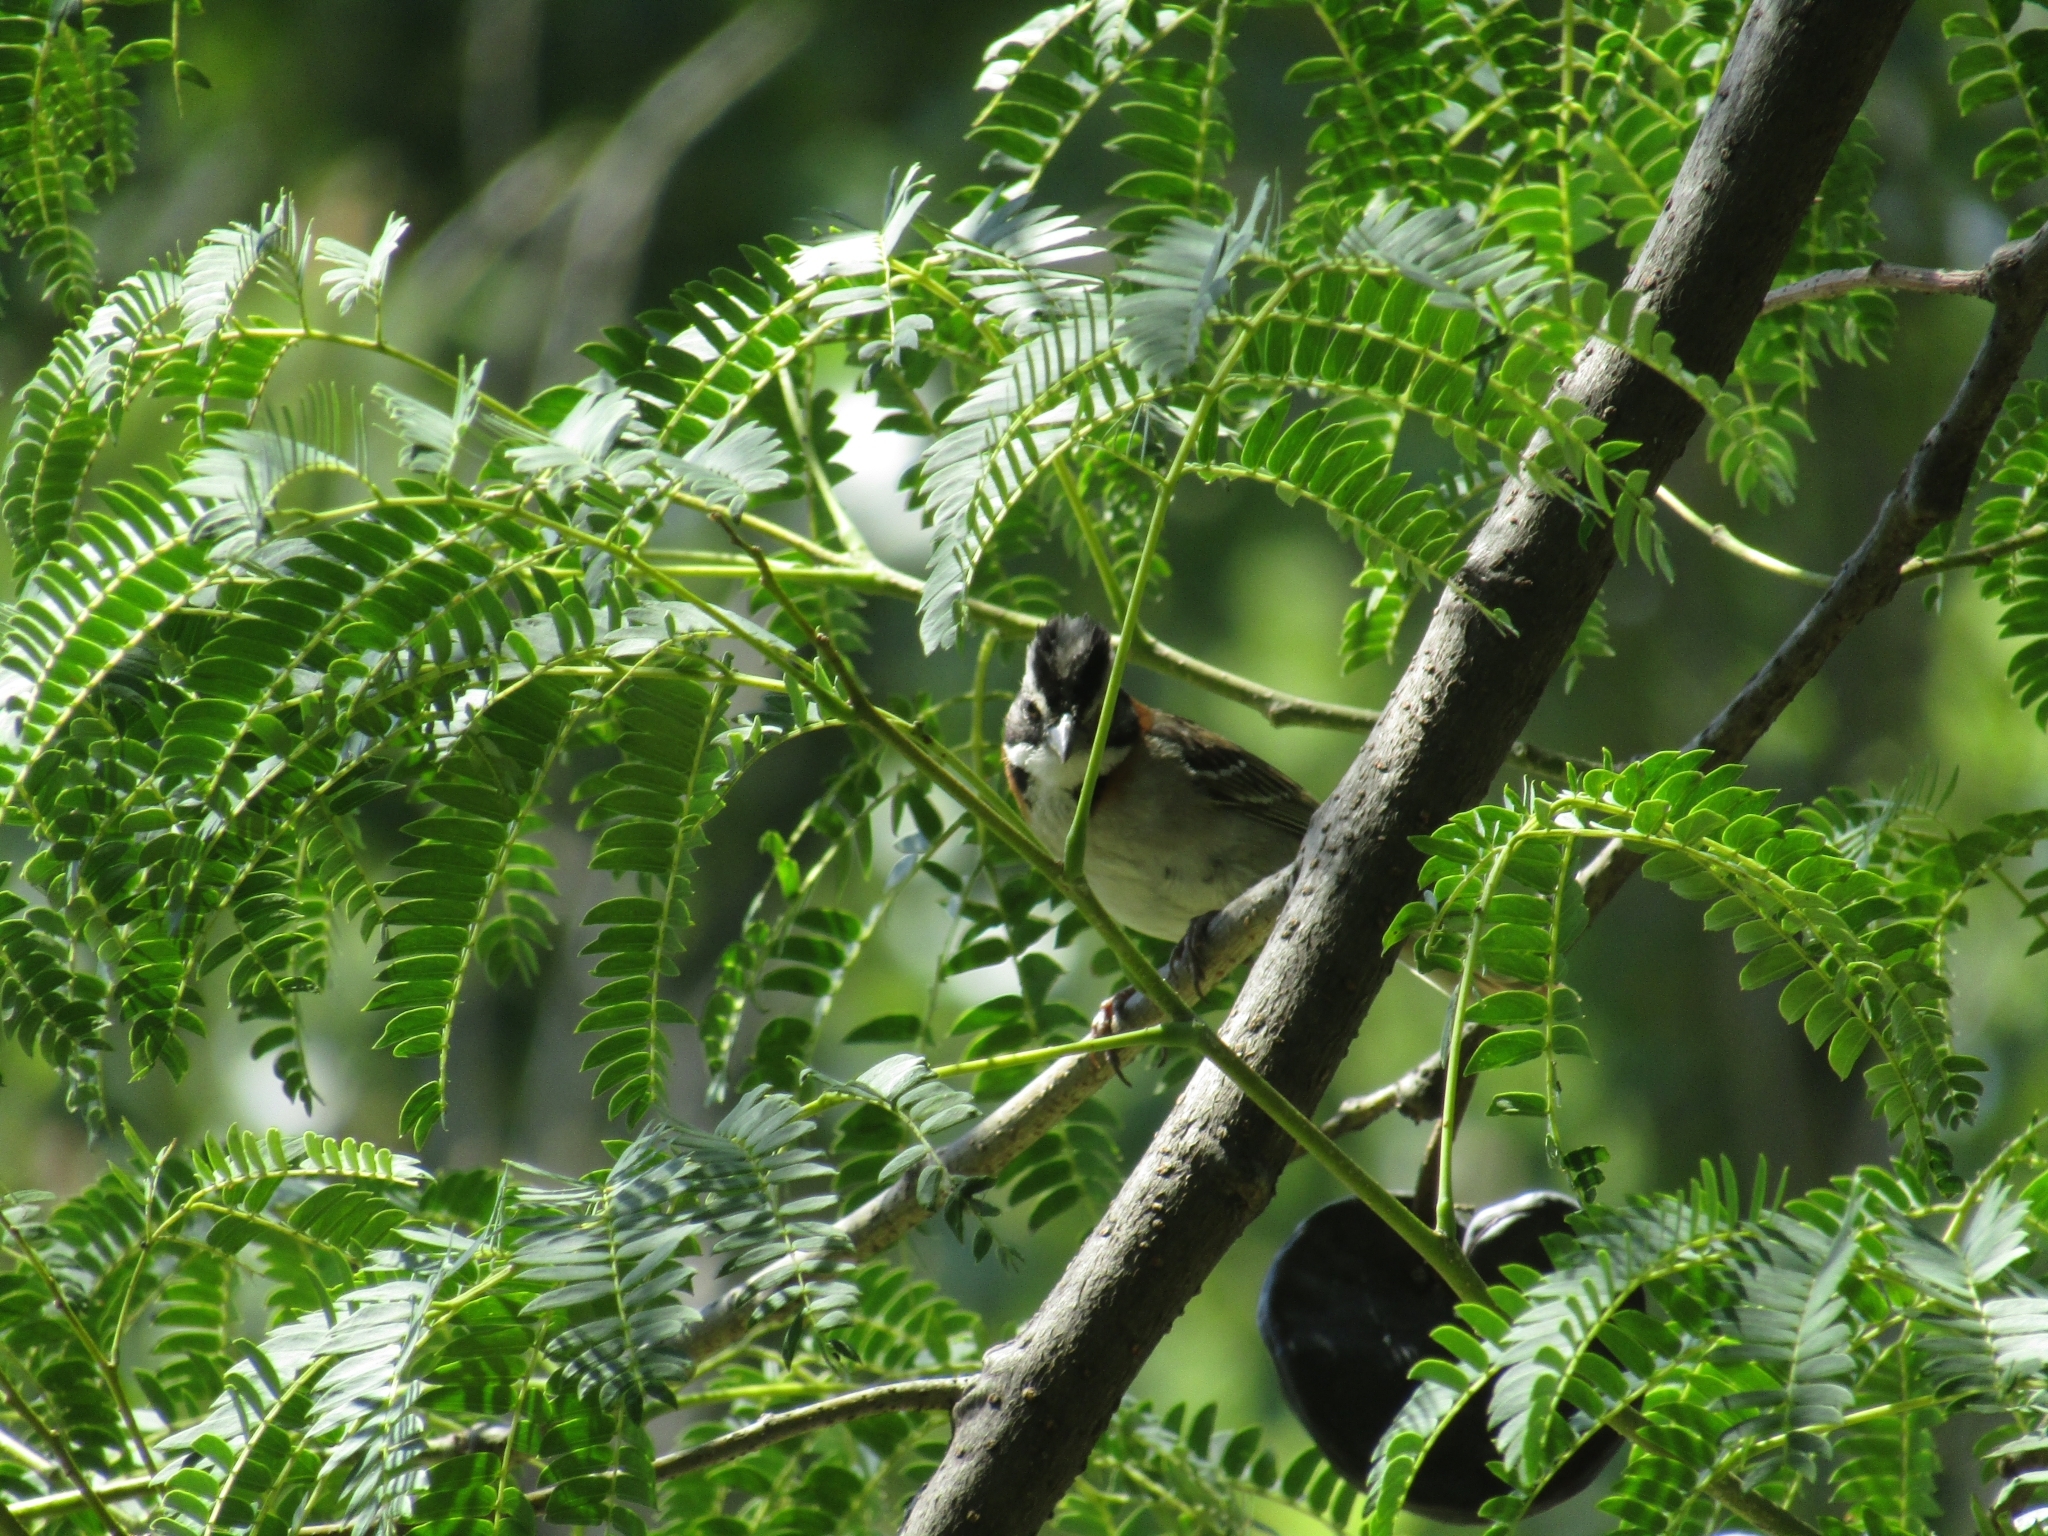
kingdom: Animalia
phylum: Chordata
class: Aves
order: Passeriformes
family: Passerellidae
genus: Zonotrichia
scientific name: Zonotrichia capensis
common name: Rufous-collared sparrow
